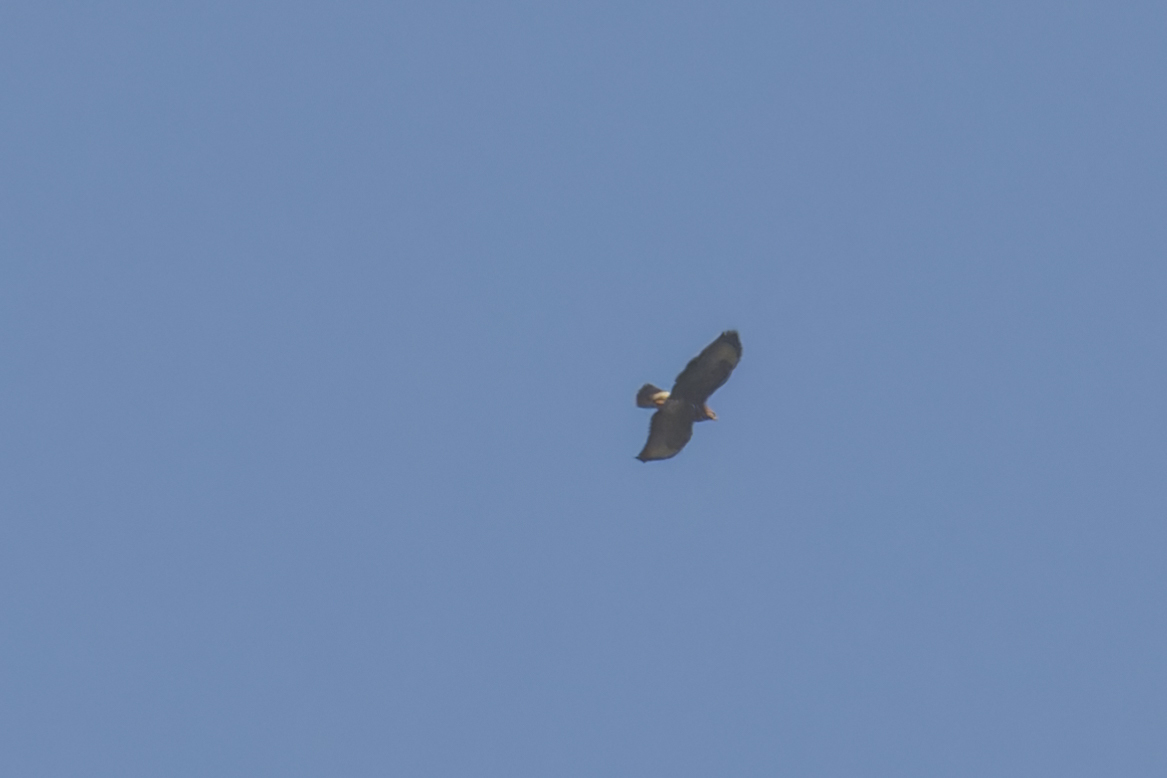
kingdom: Animalia
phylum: Chordata
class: Aves
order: Accipitriformes
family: Accipitridae
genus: Buteo
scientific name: Buteo buteo
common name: Common buzzard
